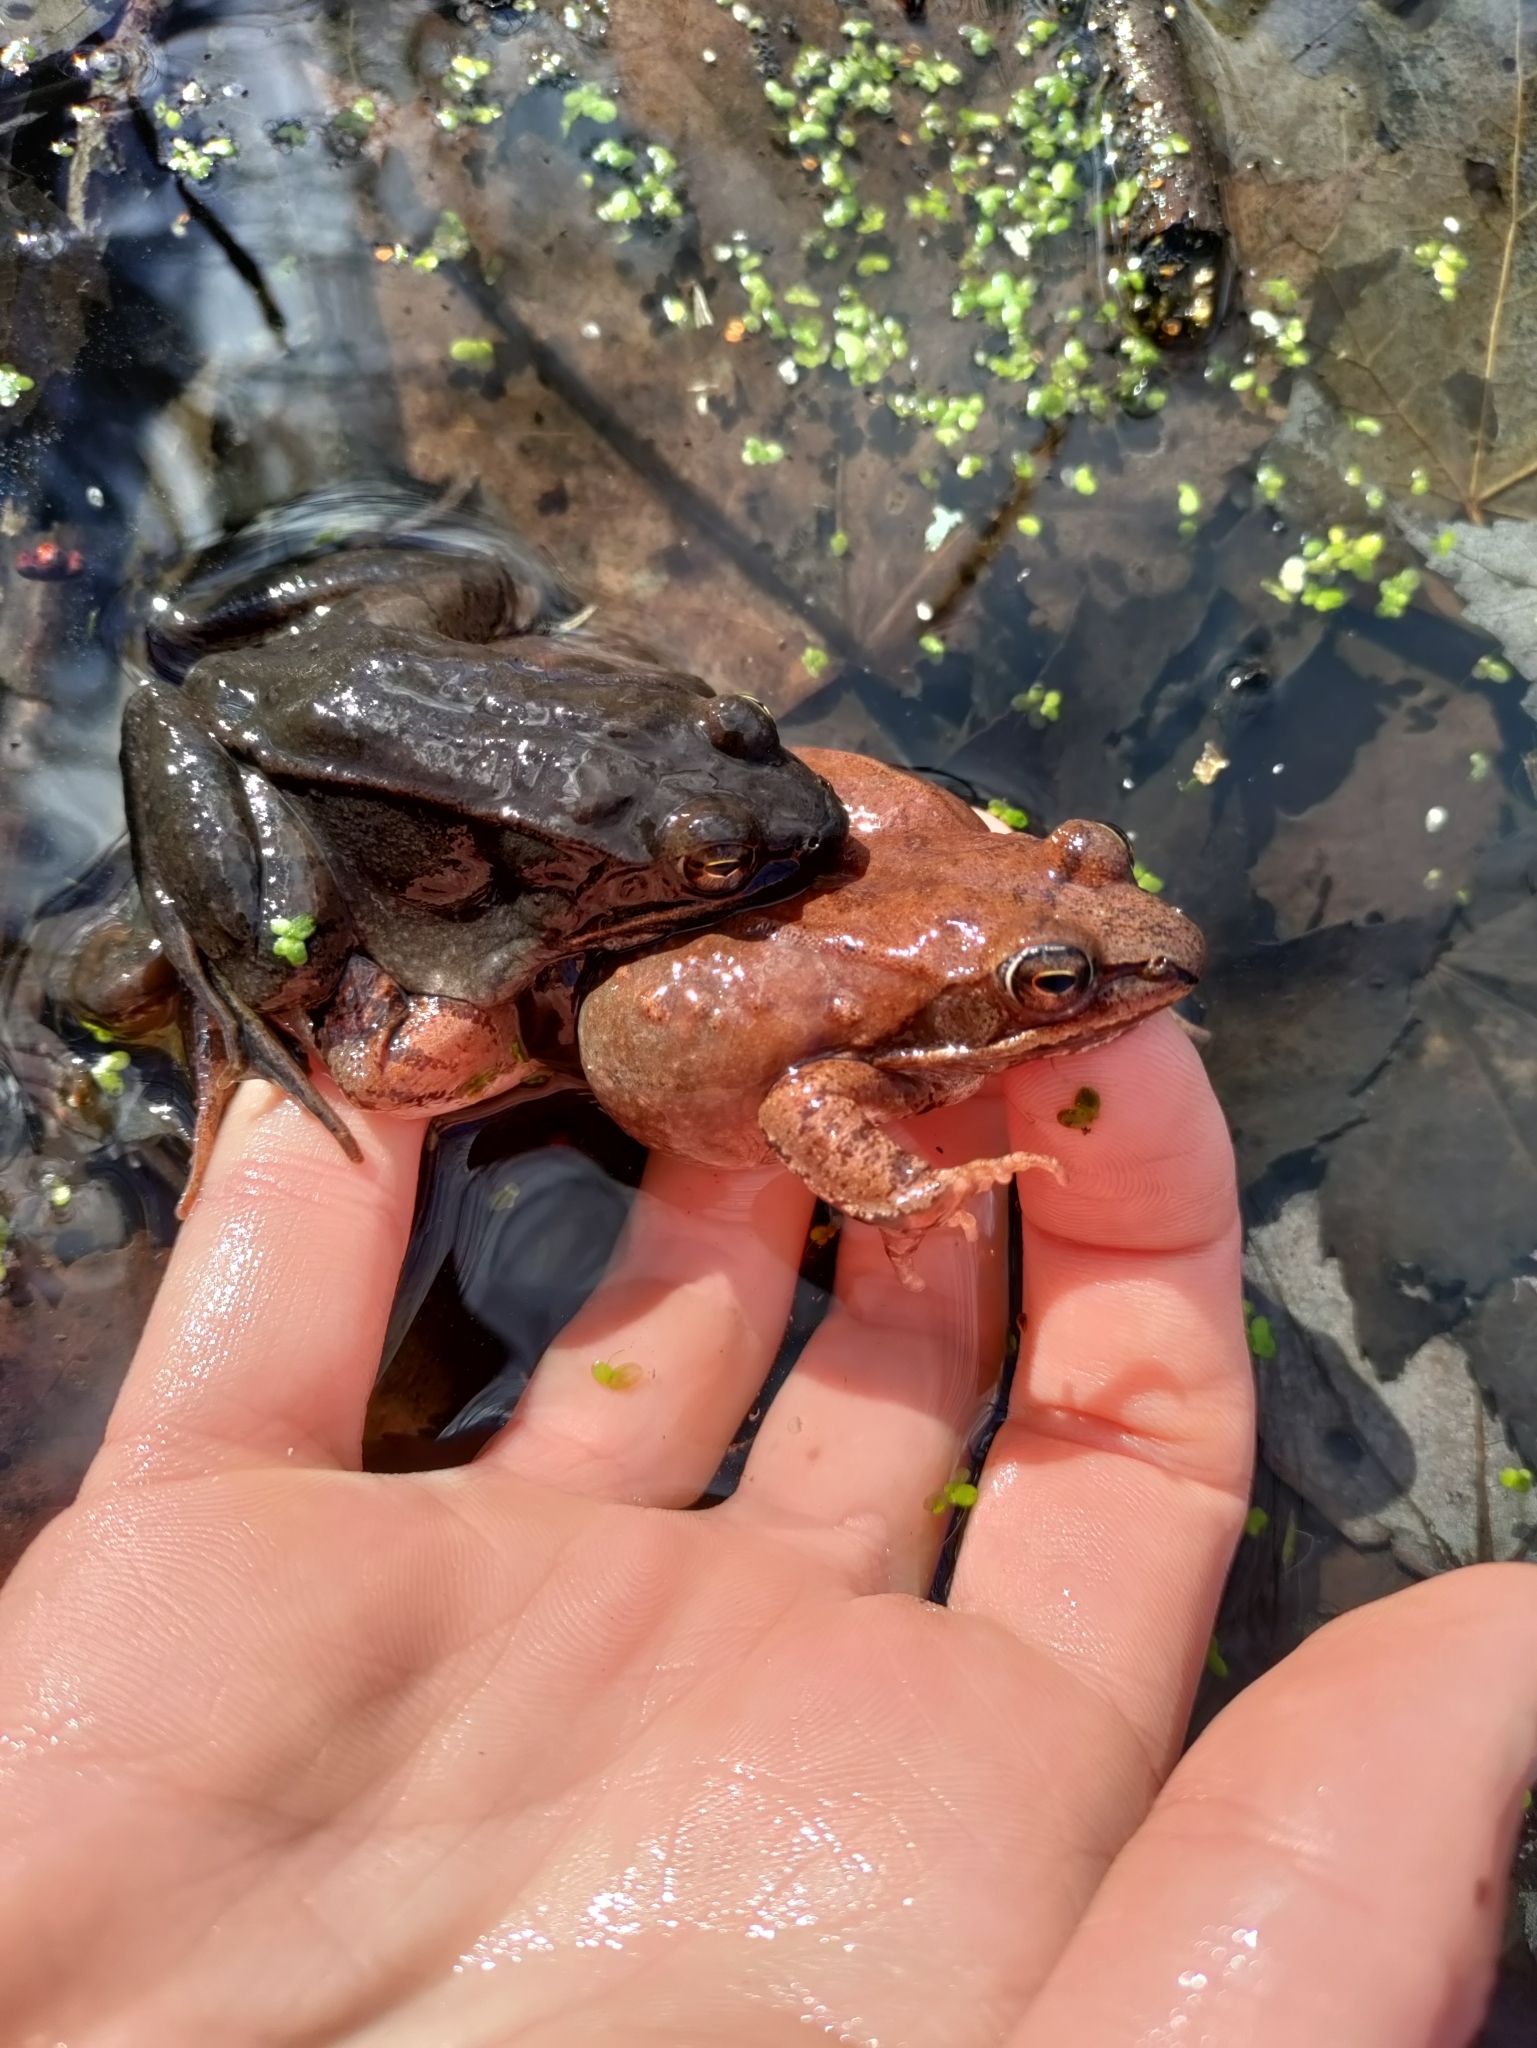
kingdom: Animalia
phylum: Chordata
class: Amphibia
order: Anura
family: Ranidae
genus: Lithobates
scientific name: Lithobates sylvaticus
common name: Wood frog
